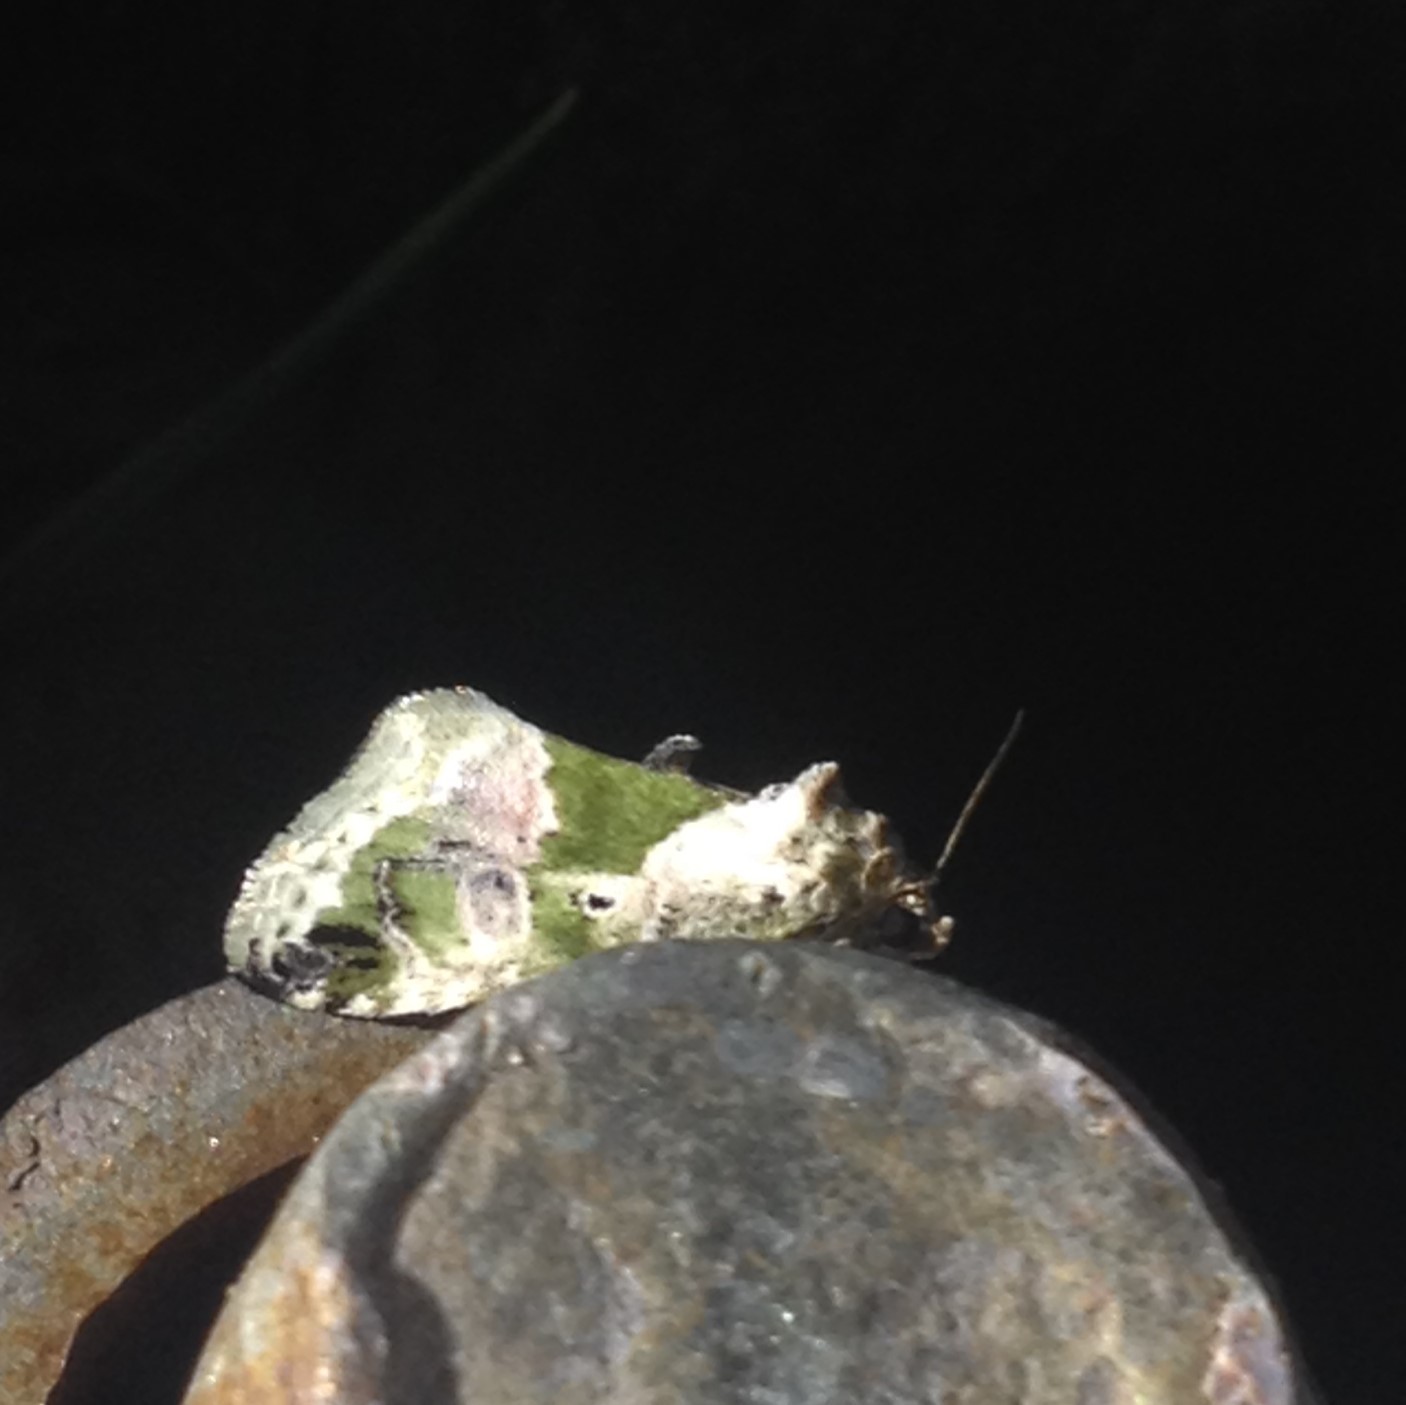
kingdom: Animalia
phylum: Arthropoda
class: Insecta
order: Lepidoptera
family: Noctuidae
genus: Maliattha
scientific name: Maliattha synochitis
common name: Black-dotted glyph
